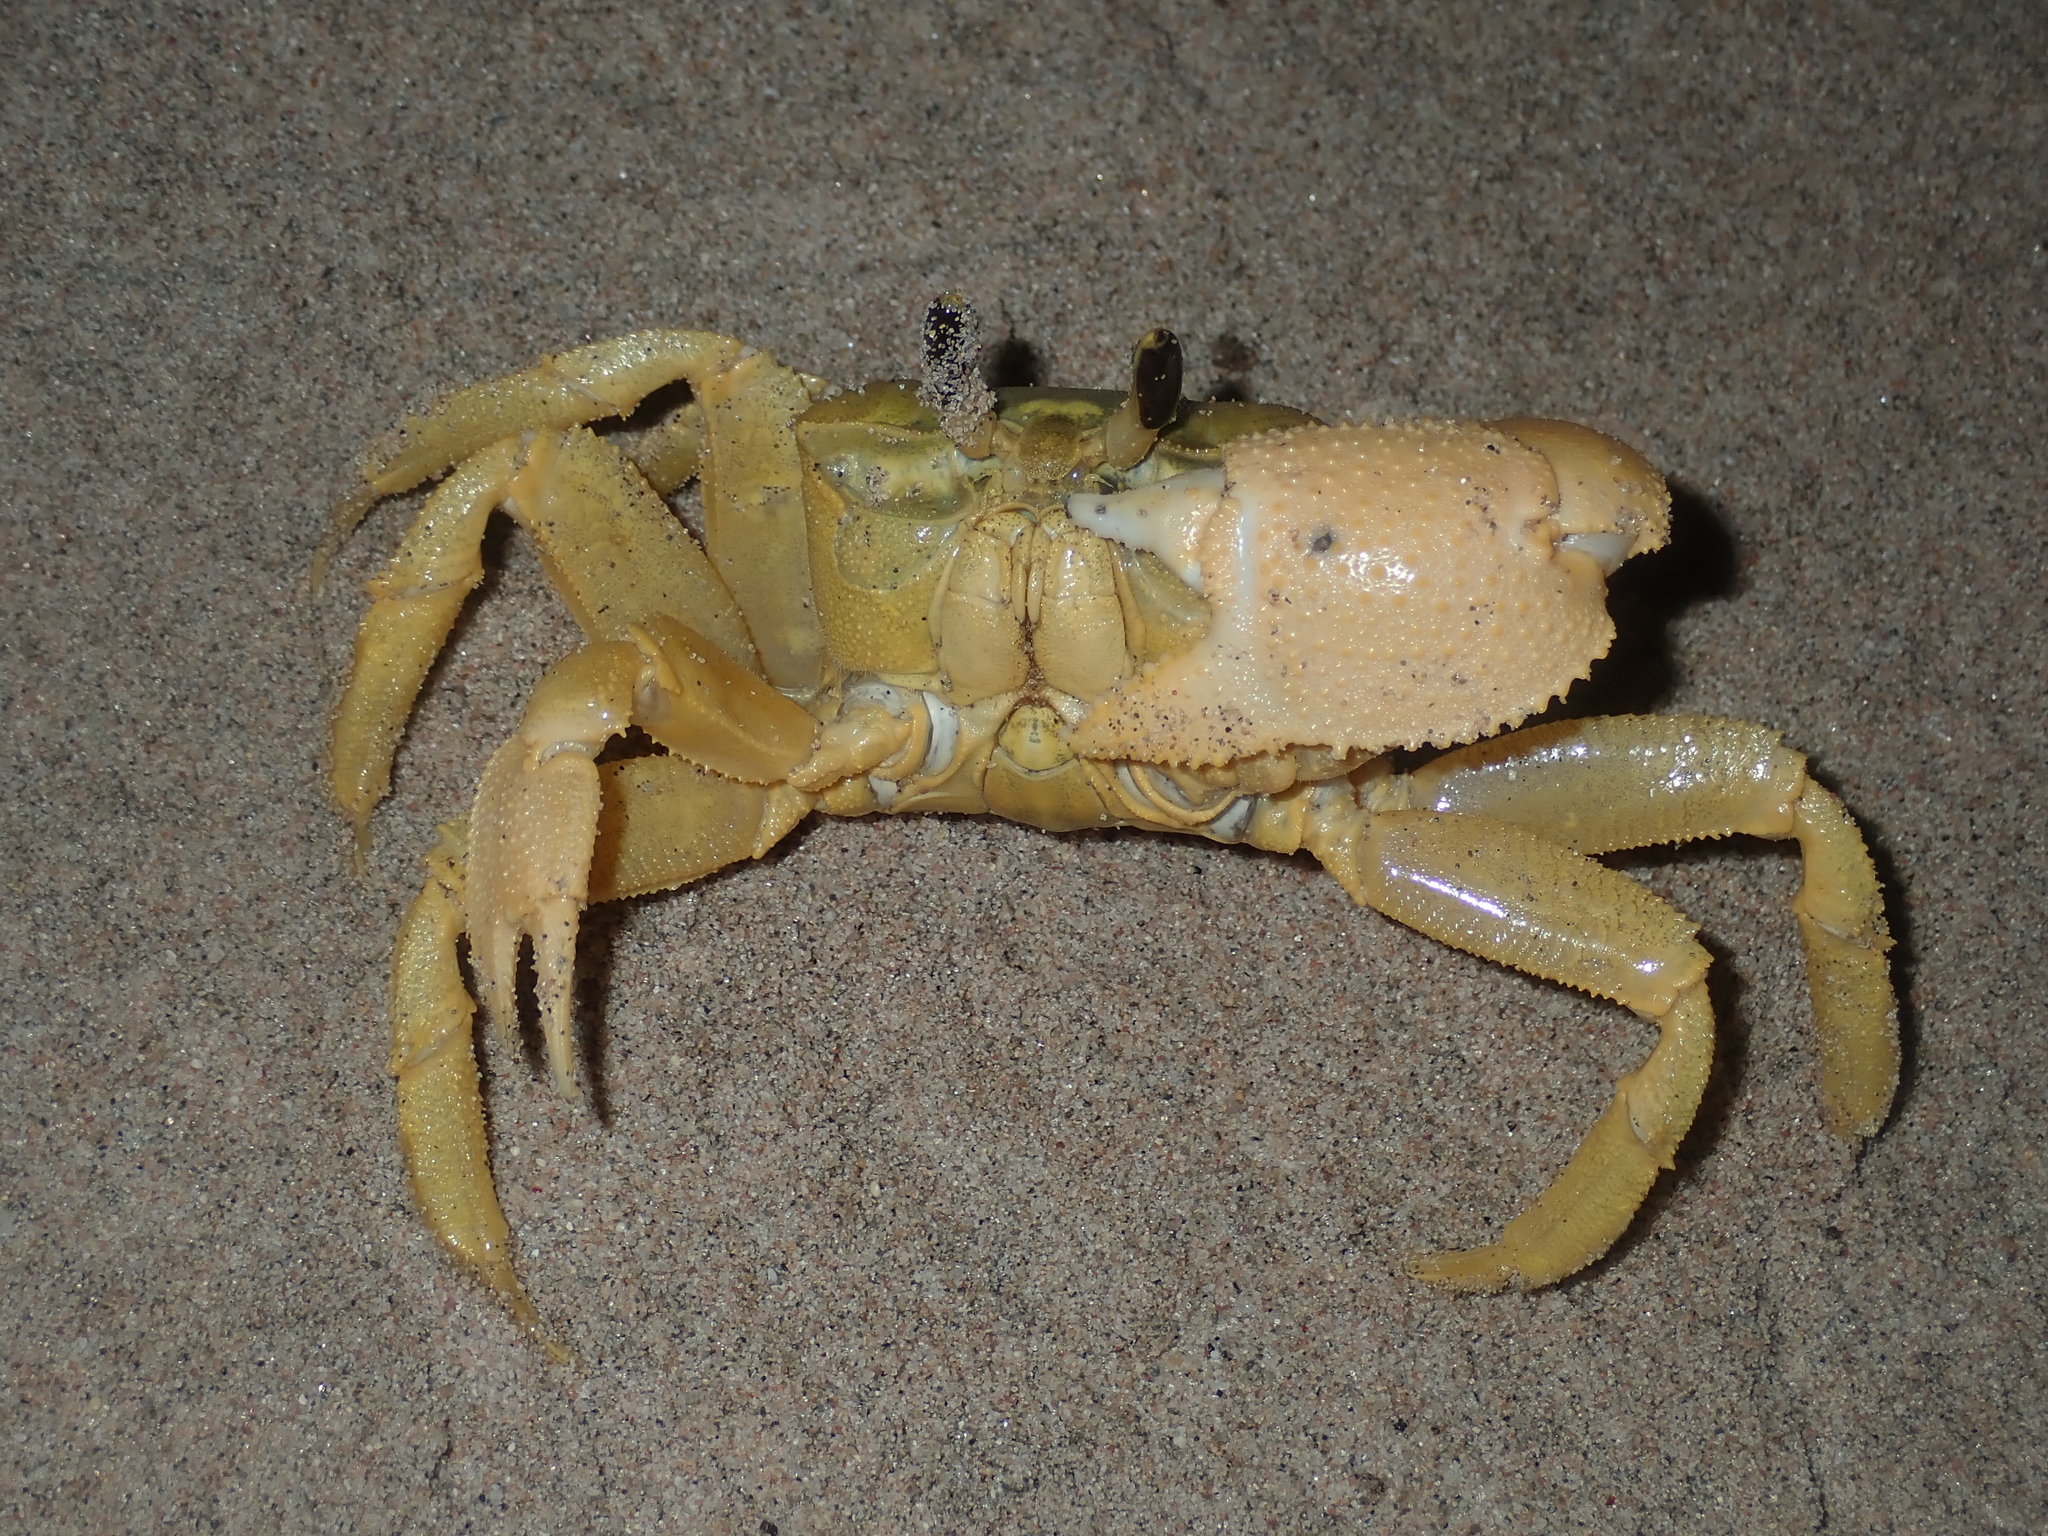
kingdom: Animalia
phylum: Arthropoda
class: Malacostraca
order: Decapoda
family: Ocypodidae
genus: Ocypode
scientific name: Ocypode convexa
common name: Golden ghost crab
